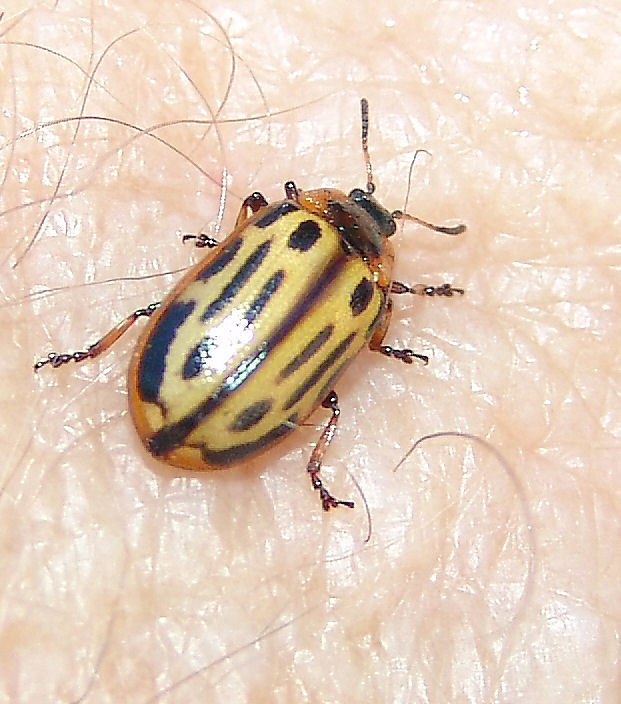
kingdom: Animalia
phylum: Arthropoda
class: Insecta
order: Coleoptera
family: Chrysomelidae
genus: Aethiopocassis
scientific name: Aethiopocassis scripta
